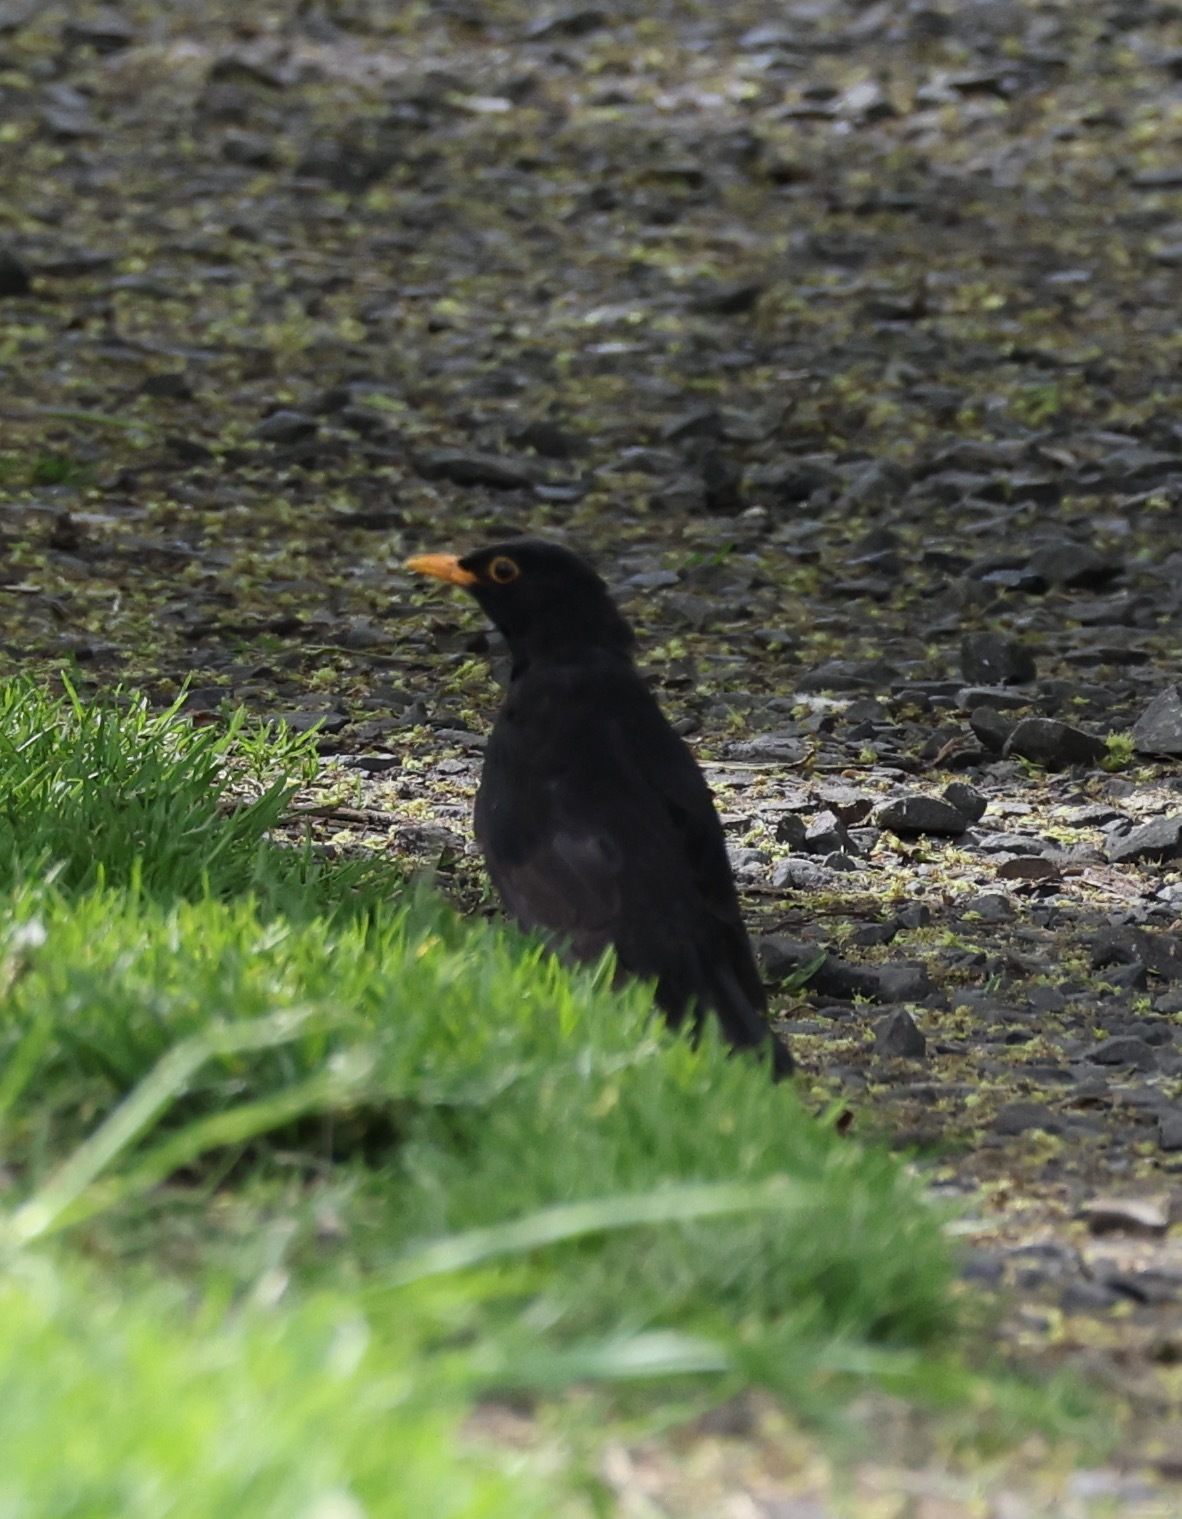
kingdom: Animalia
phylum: Chordata
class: Aves
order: Passeriformes
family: Turdidae
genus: Turdus
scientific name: Turdus merula
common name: Common blackbird
